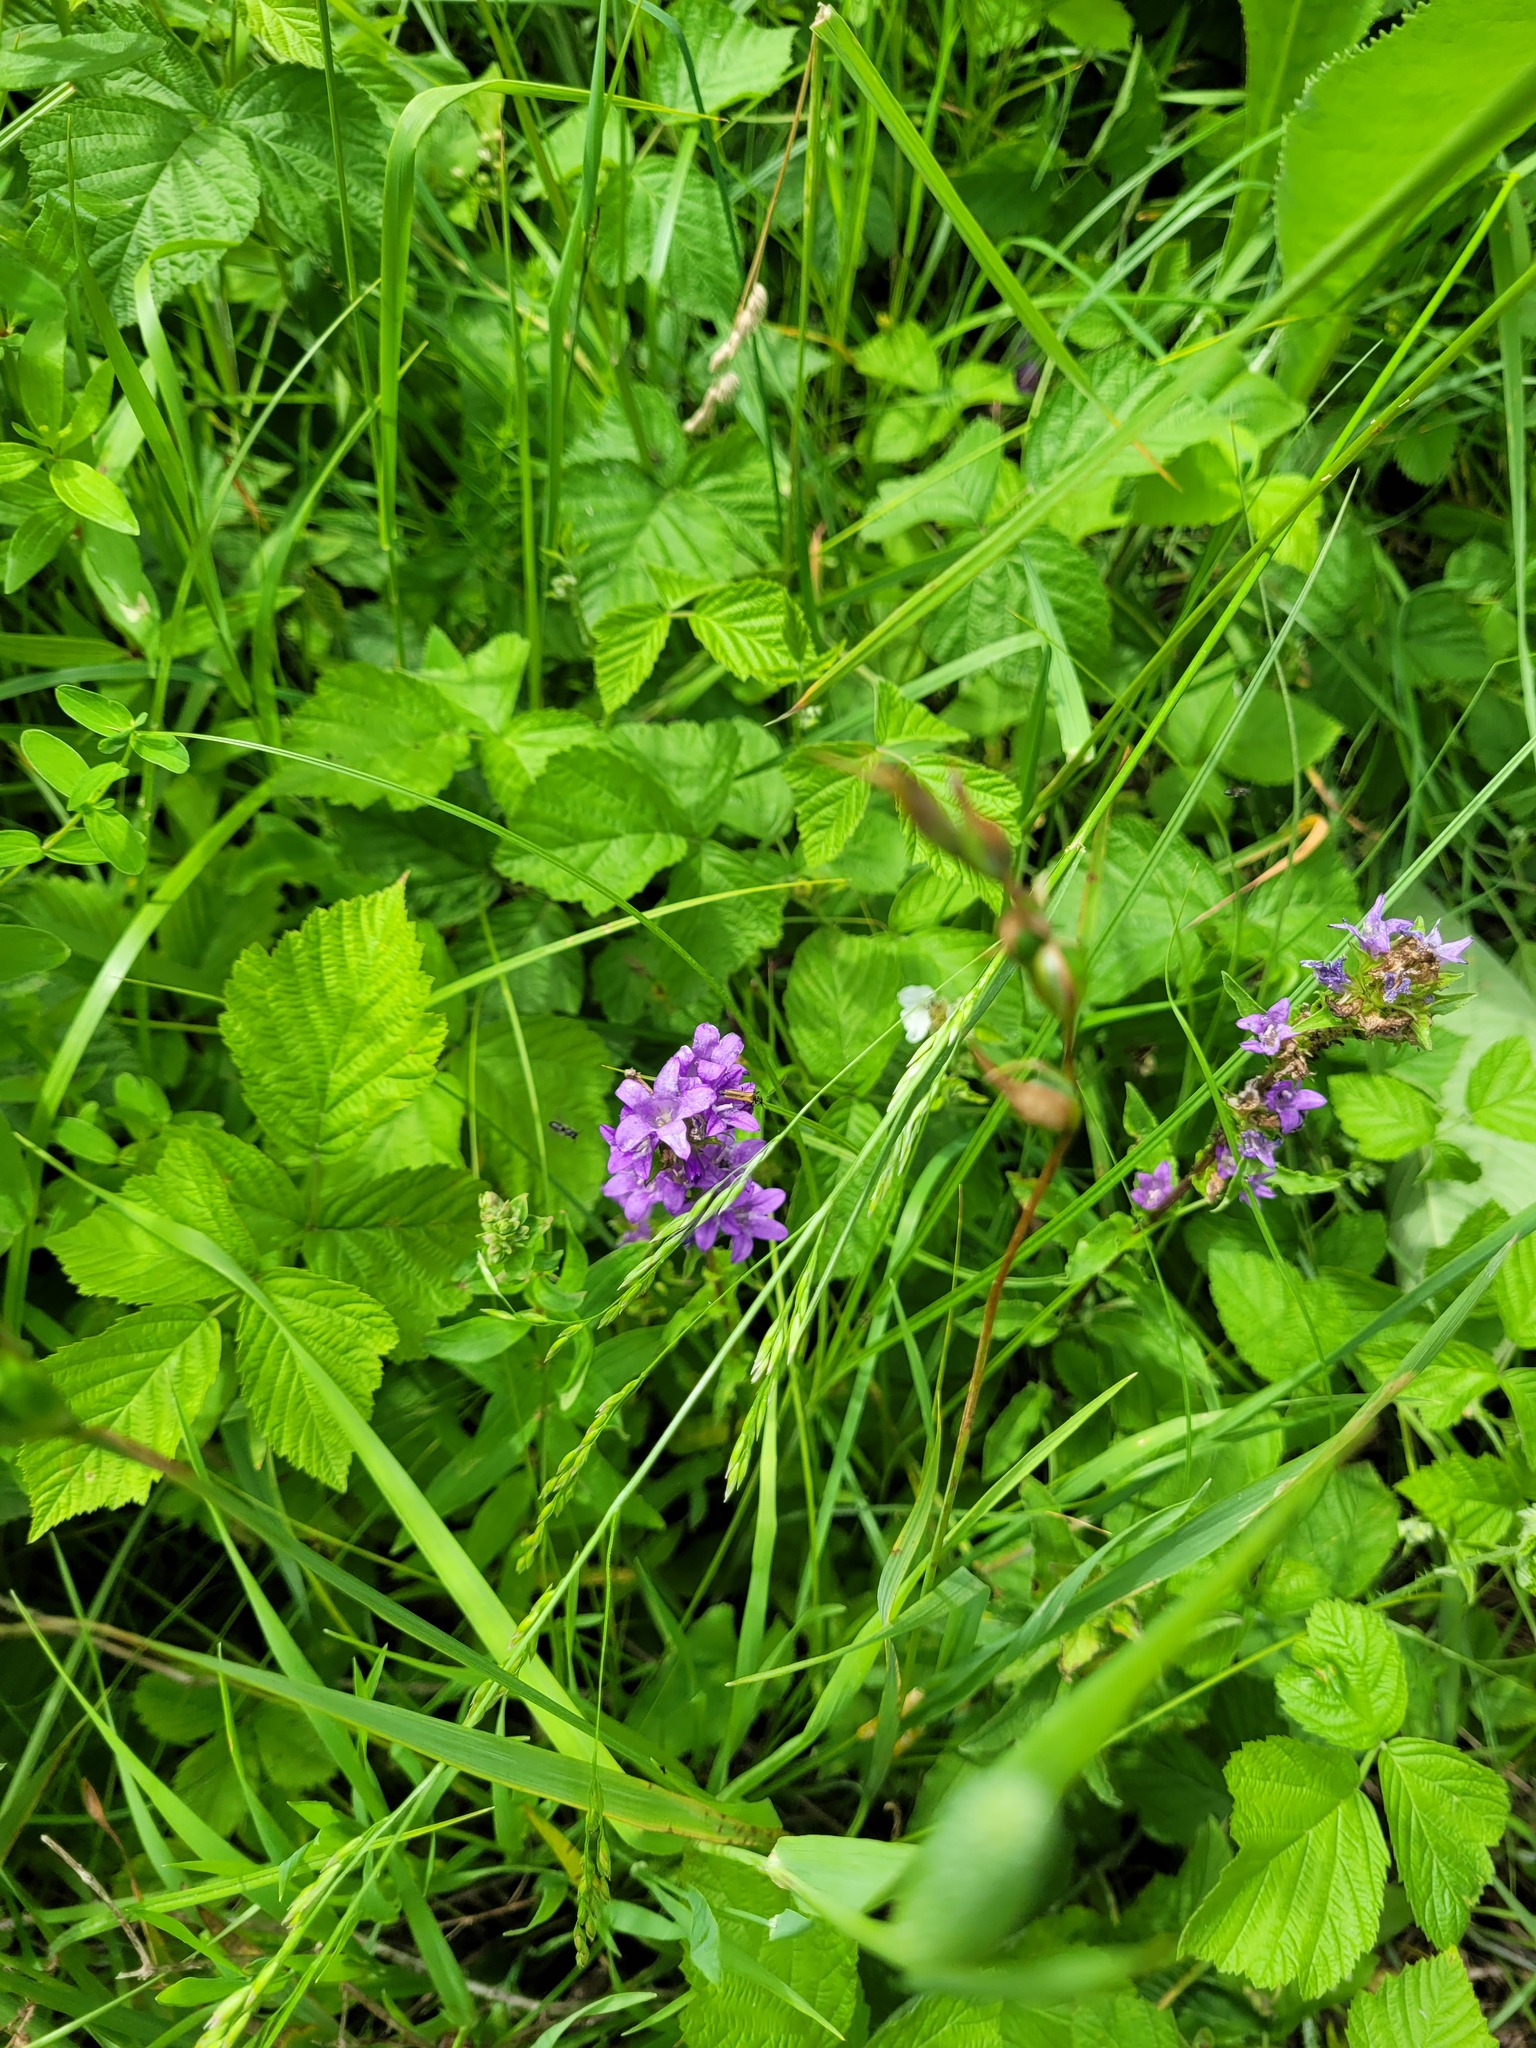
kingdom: Plantae
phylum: Tracheophyta
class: Magnoliopsida
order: Asterales
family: Campanulaceae
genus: Campanula
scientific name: Campanula glomerata
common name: Clustered bellflower
